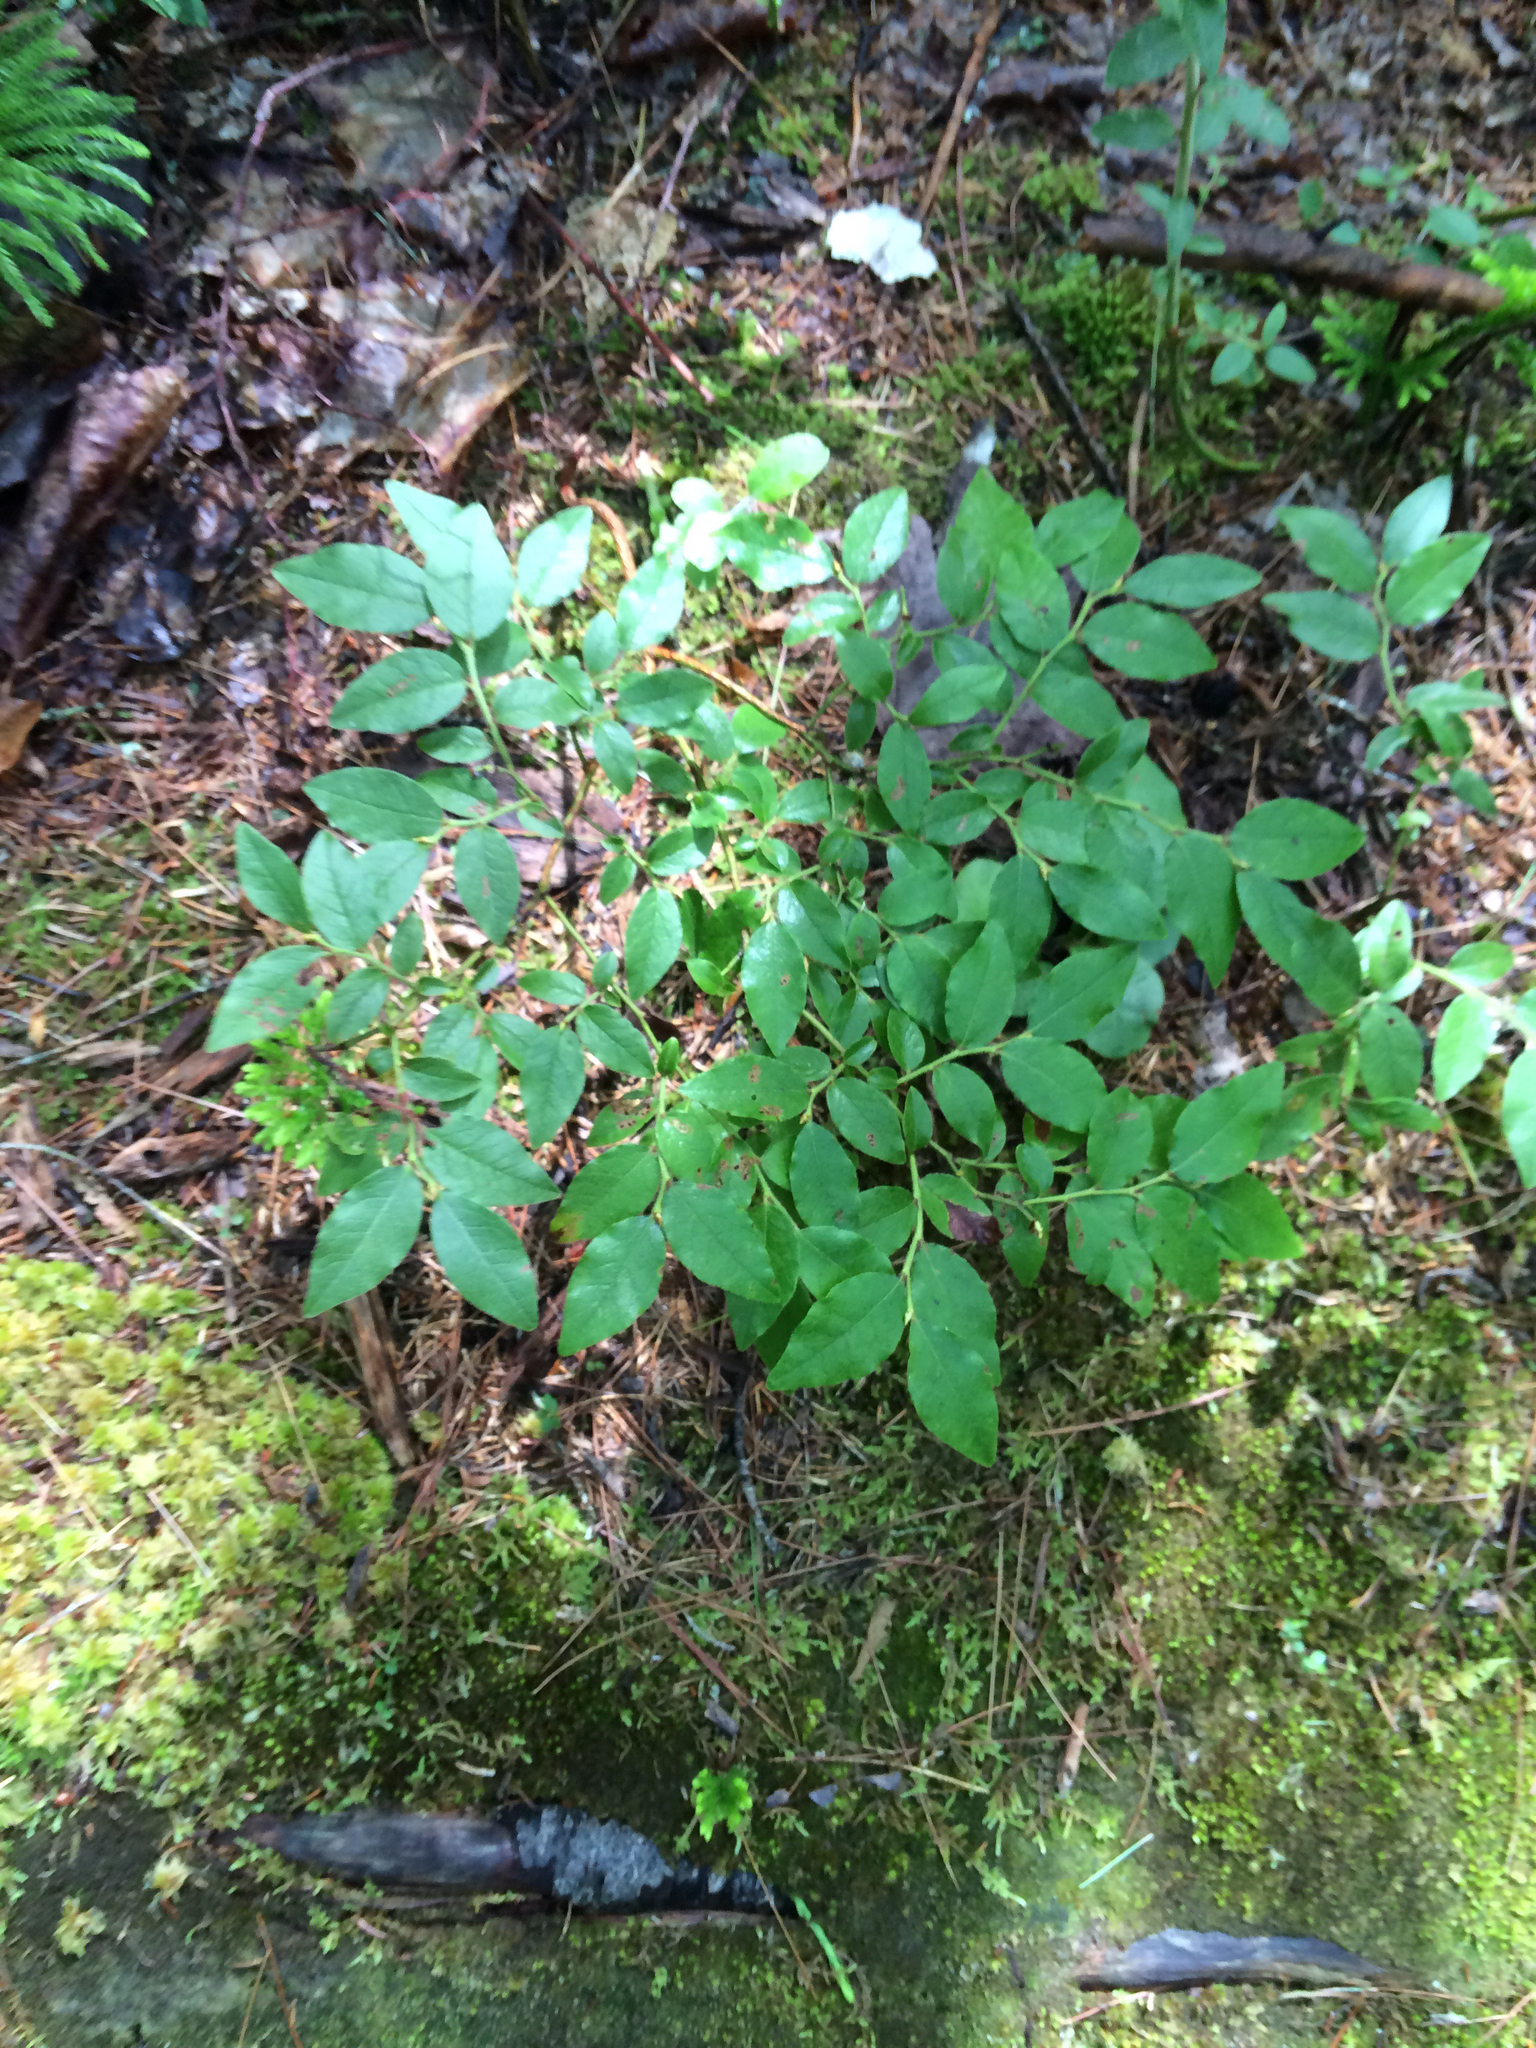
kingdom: Plantae
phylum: Tracheophyta
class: Magnoliopsida
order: Ericales
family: Ericaceae
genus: Vaccinium
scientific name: Vaccinium angustifolium
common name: Early lowbush blueberry
